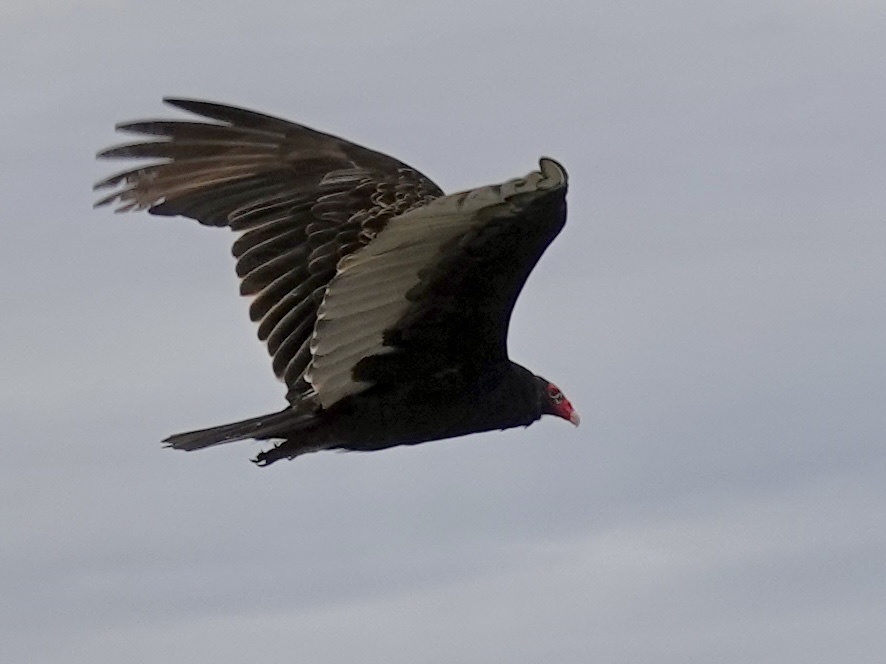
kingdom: Animalia
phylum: Chordata
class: Aves
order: Accipitriformes
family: Cathartidae
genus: Cathartes
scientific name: Cathartes aura
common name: Turkey vulture
